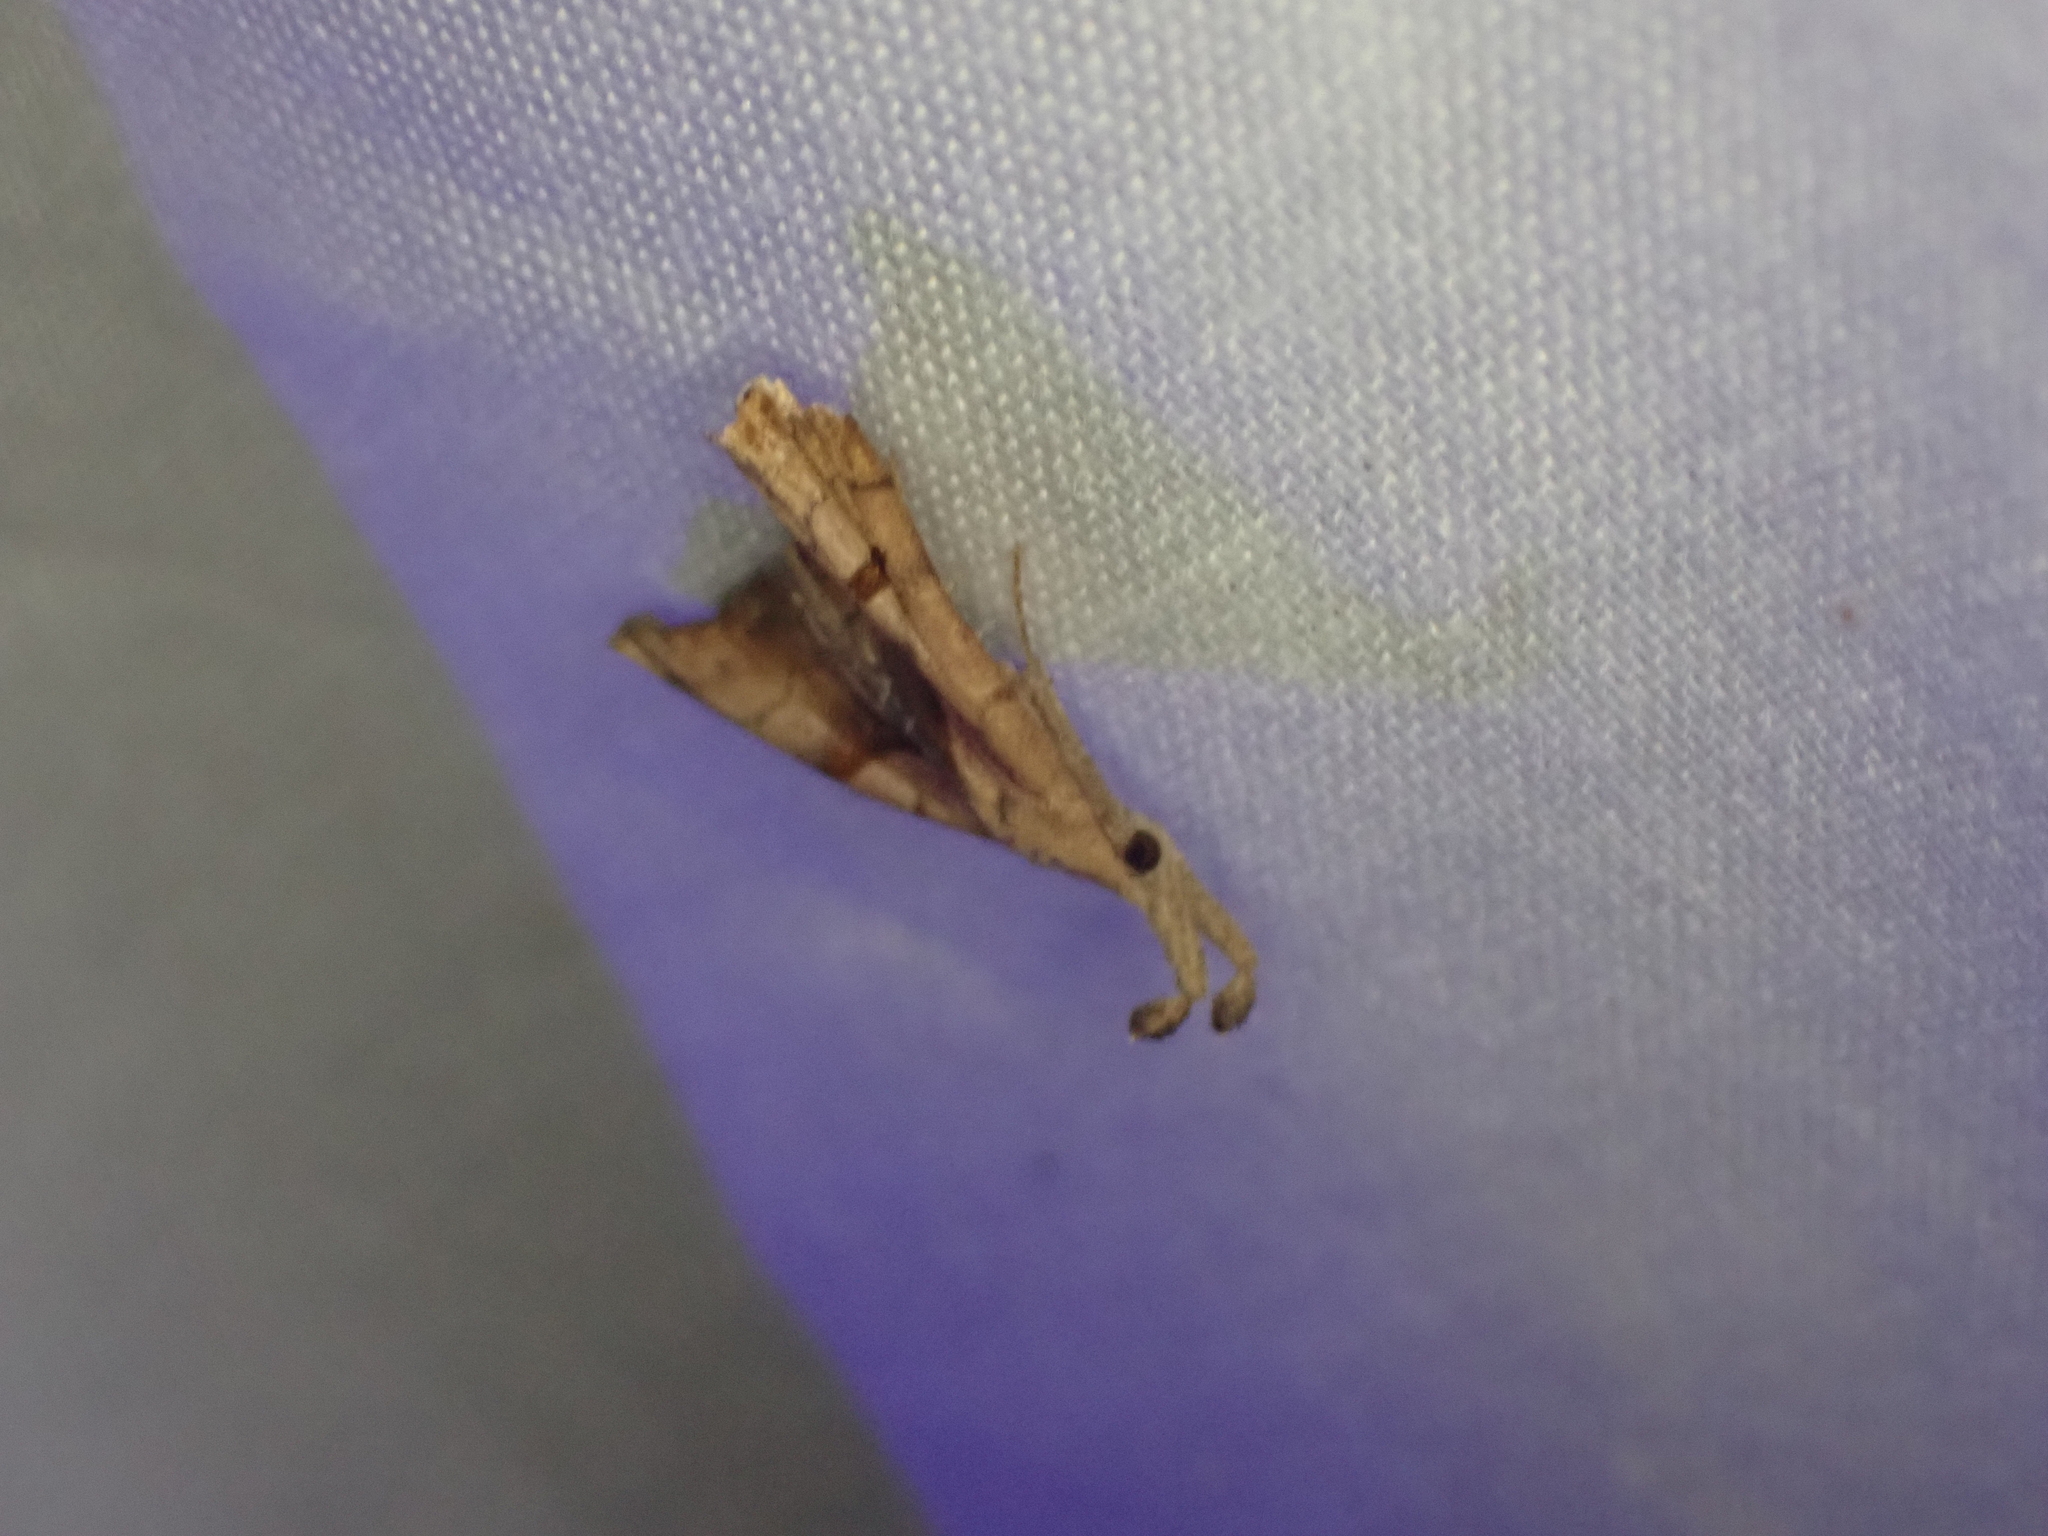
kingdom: Animalia
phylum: Arthropoda
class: Insecta
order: Lepidoptera
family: Erebidae
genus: Palthis
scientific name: Palthis angulalis
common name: Dark-spotted palthis moth
